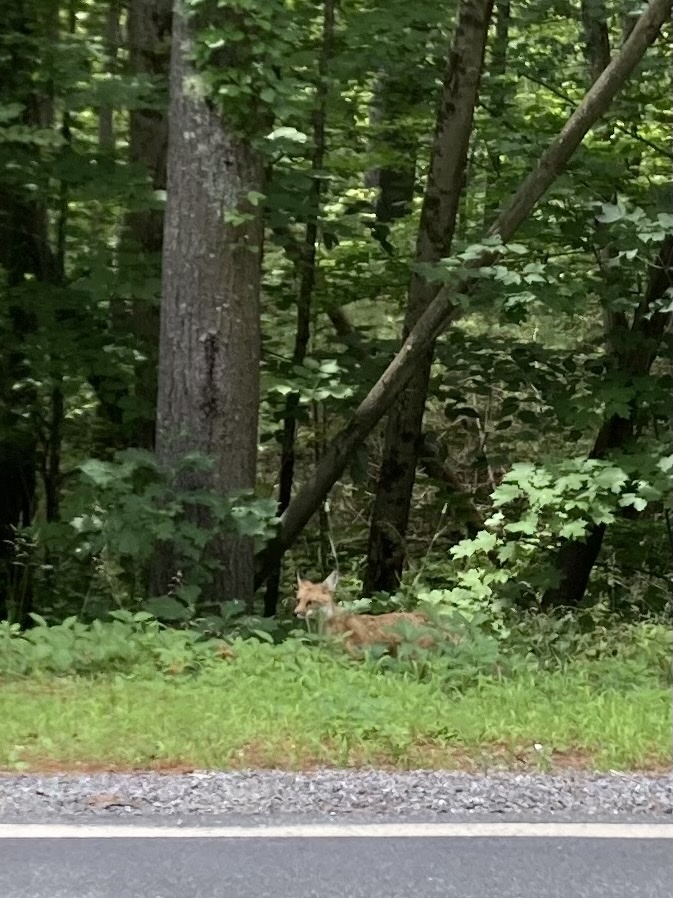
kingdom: Animalia
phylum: Chordata
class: Mammalia
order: Carnivora
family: Canidae
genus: Vulpes
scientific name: Vulpes vulpes
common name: Red fox
